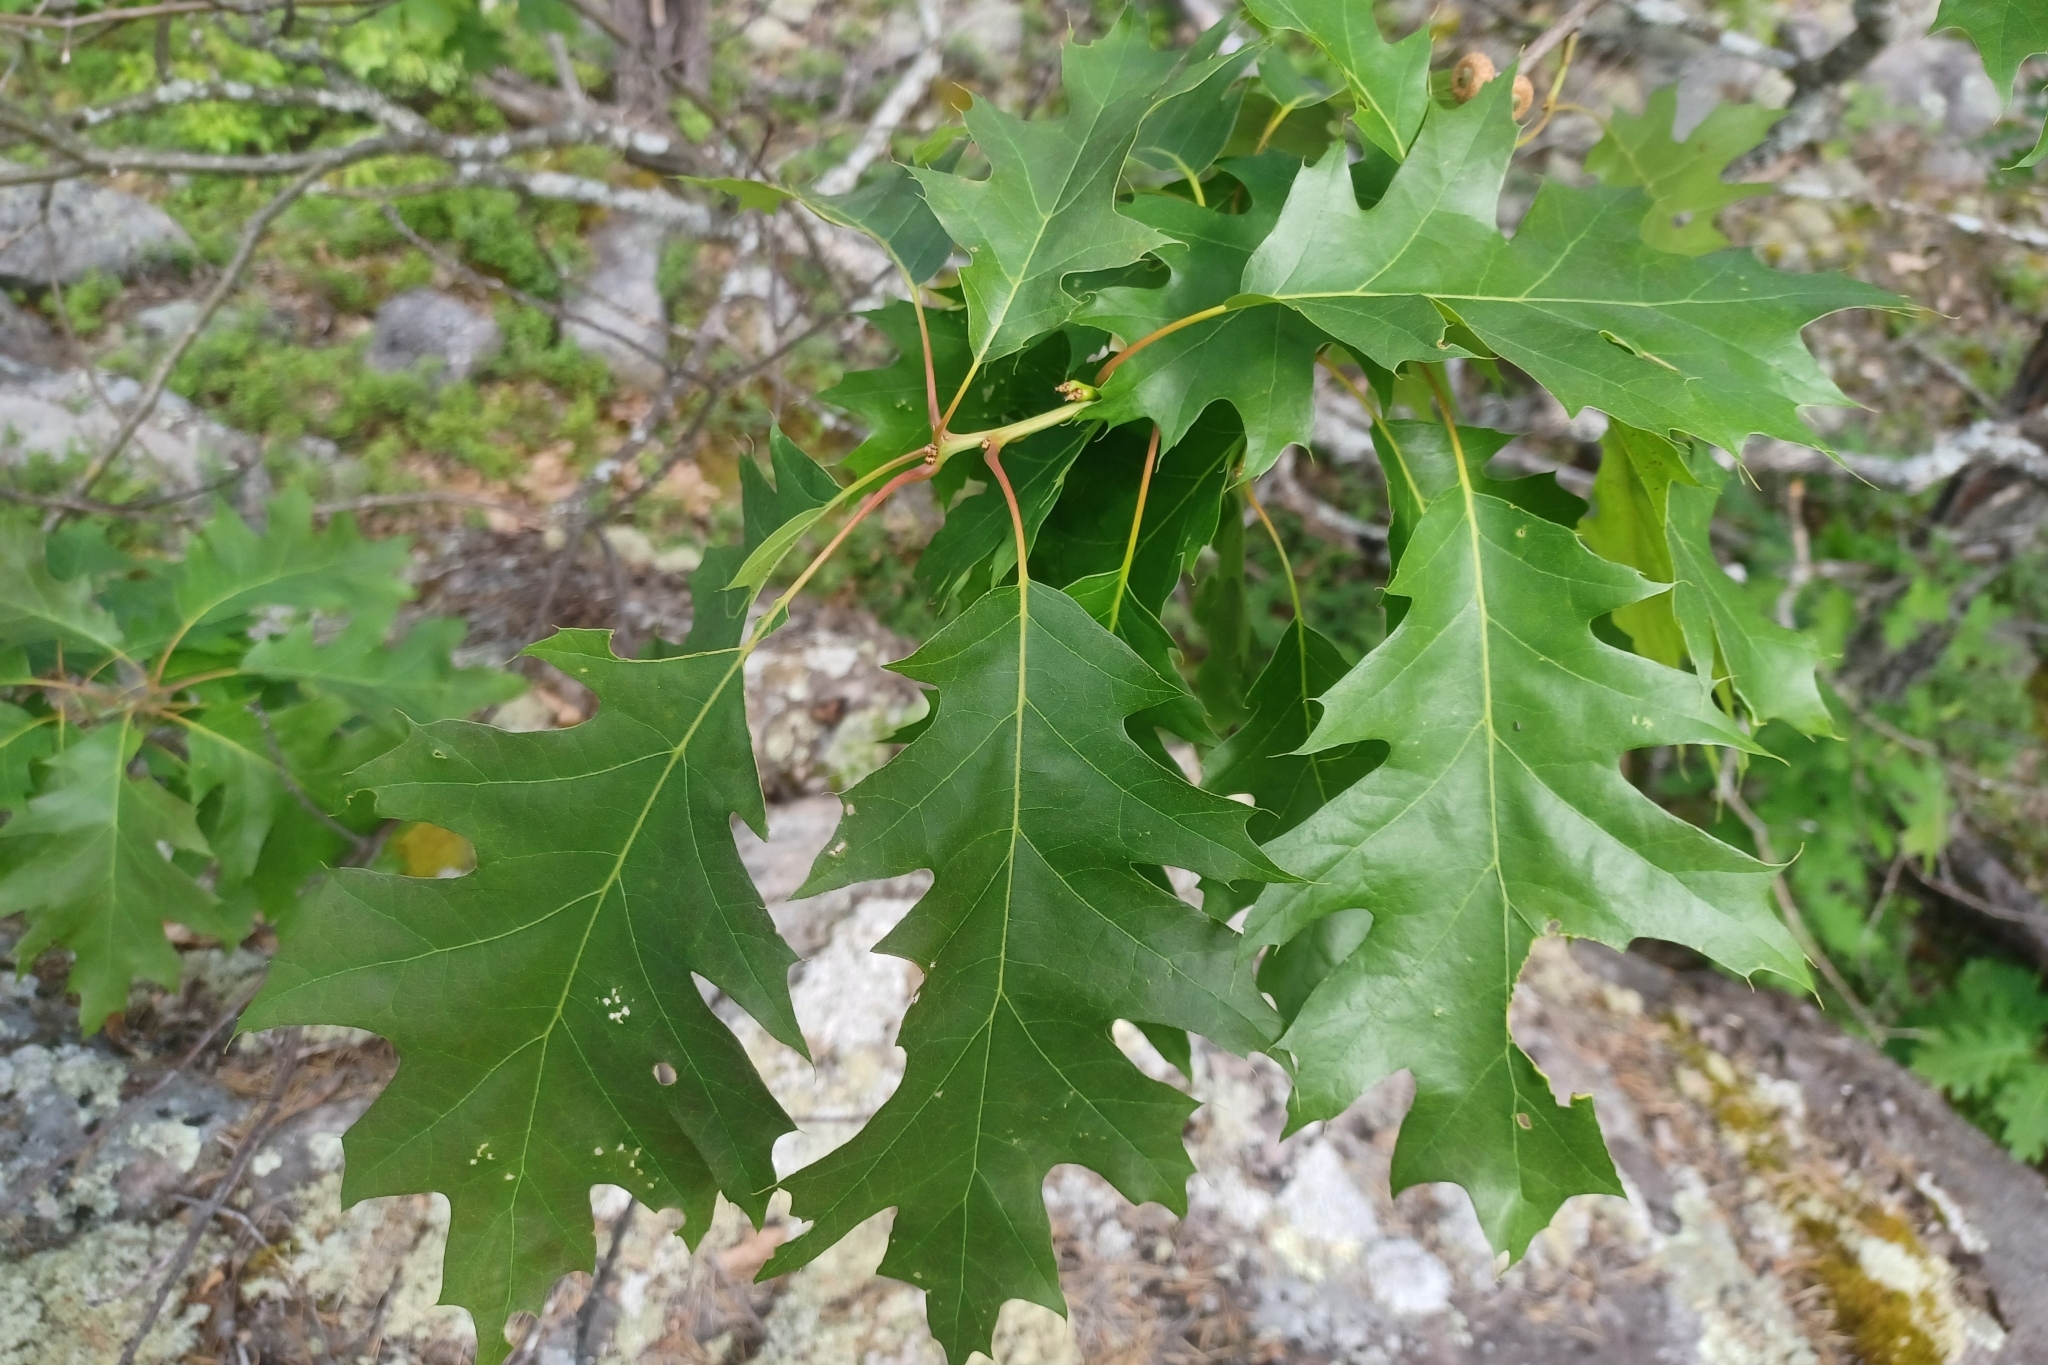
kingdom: Plantae
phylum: Tracheophyta
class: Magnoliopsida
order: Fagales
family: Fagaceae
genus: Quercus
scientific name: Quercus rubra
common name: Red oak
